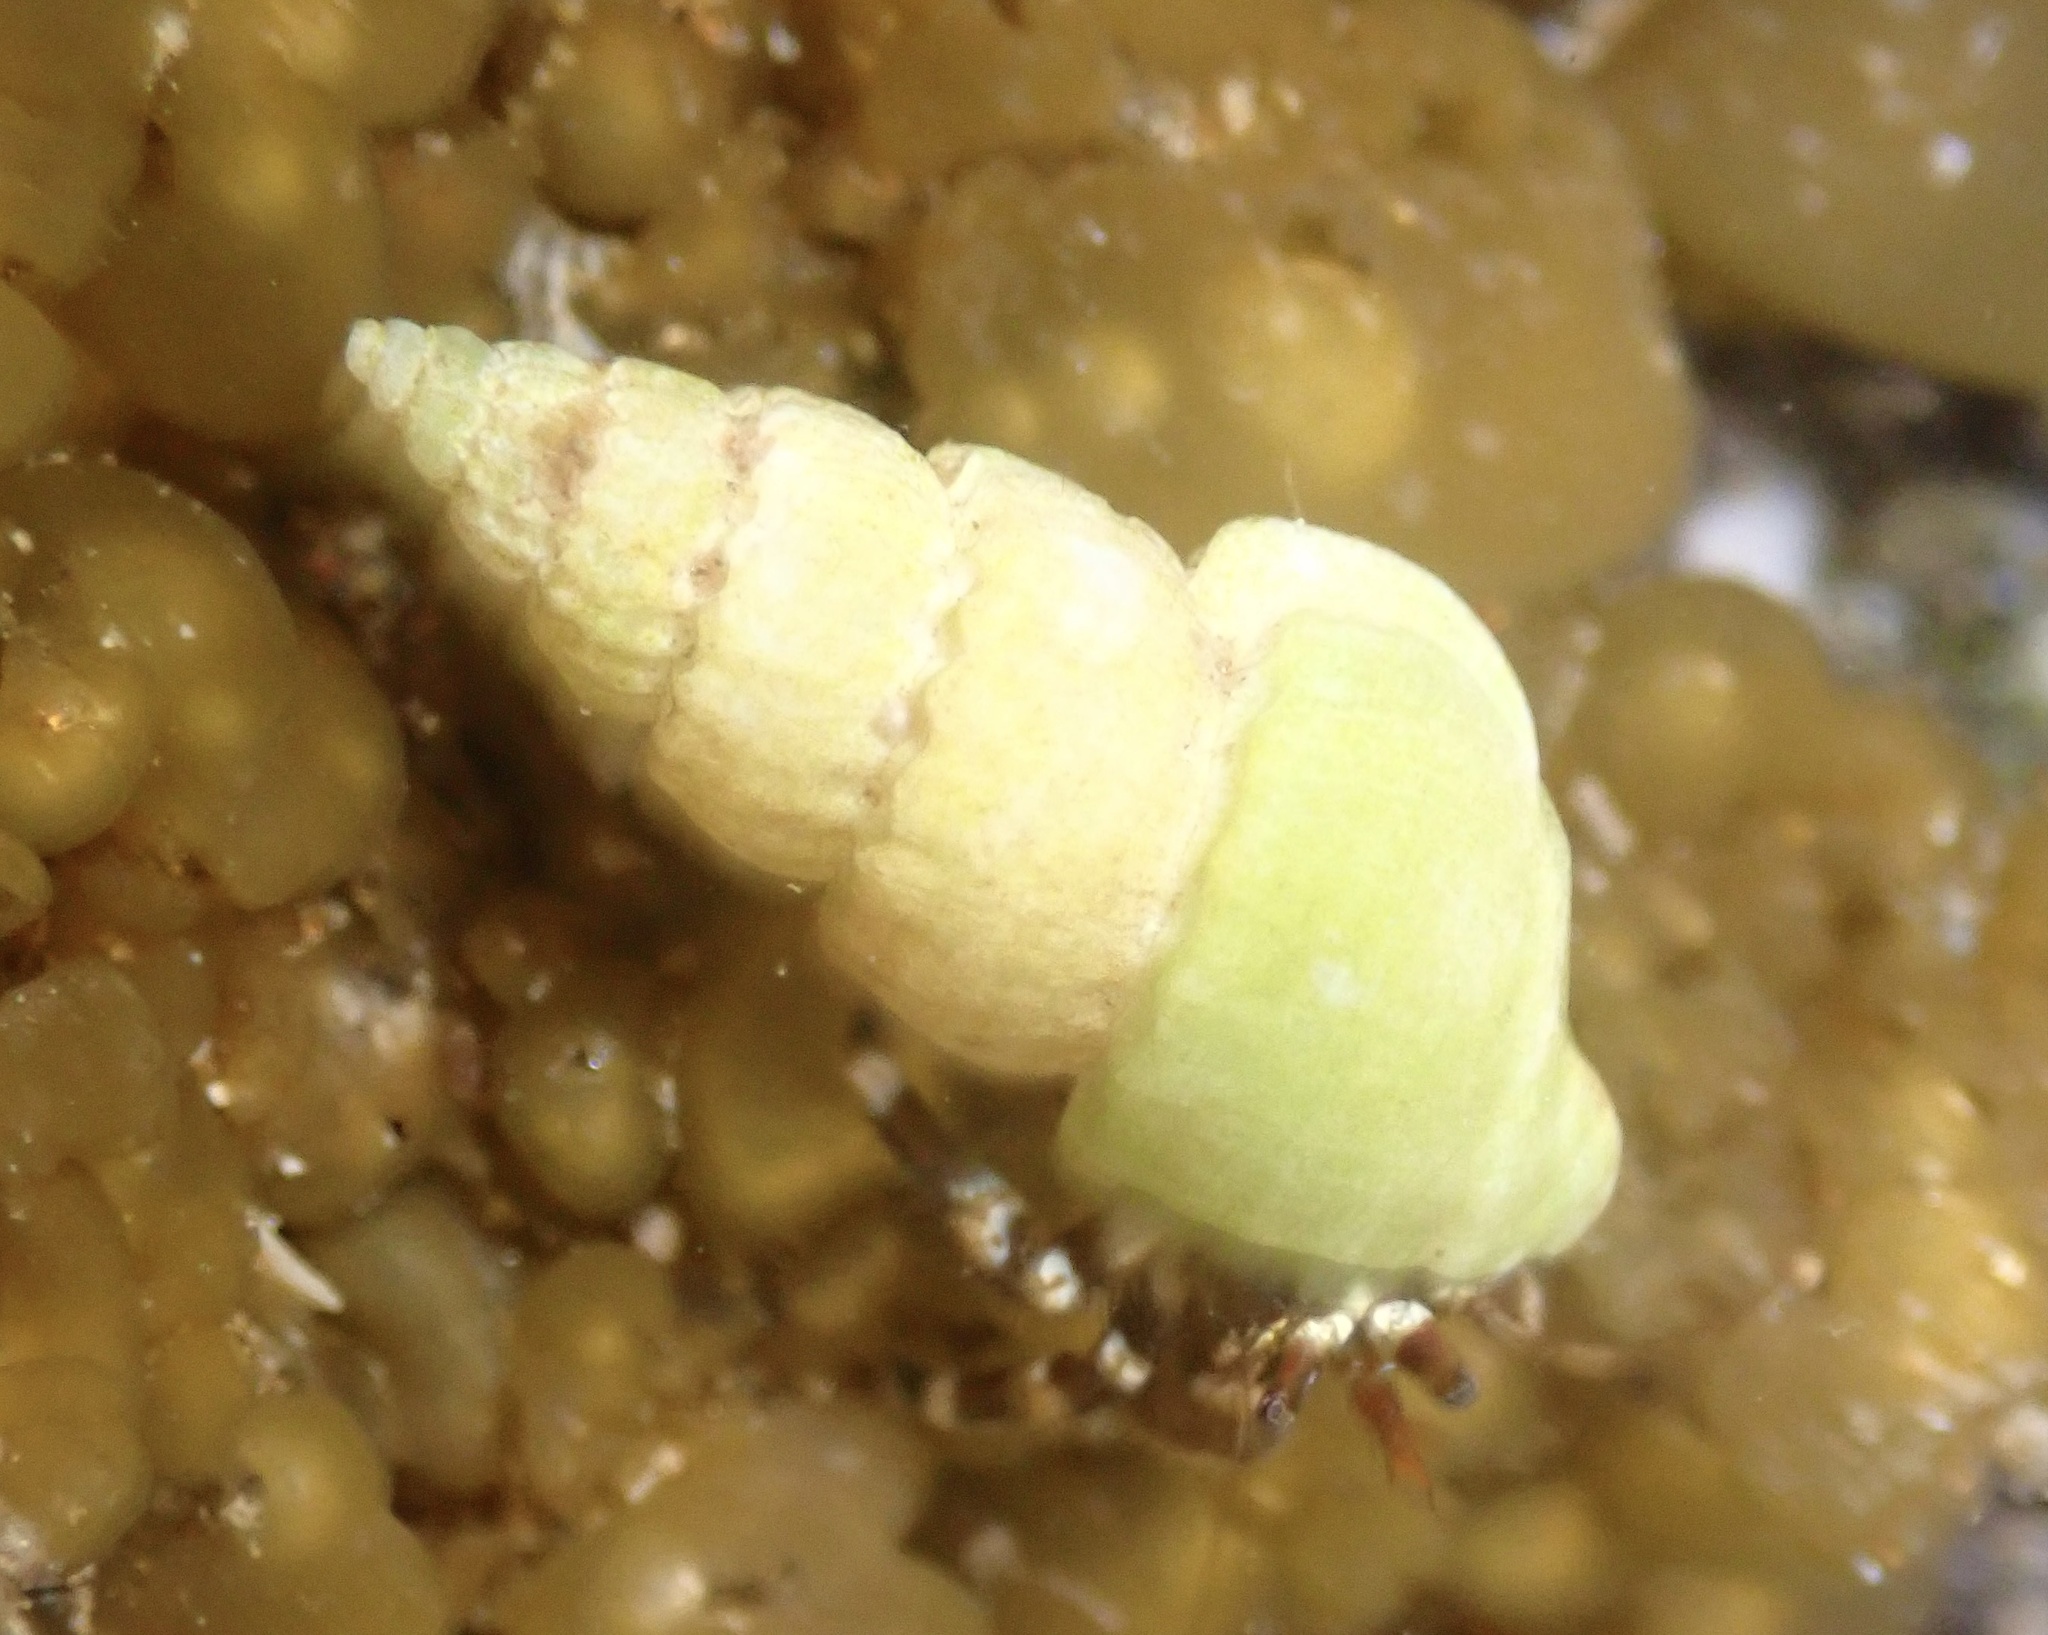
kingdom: Animalia
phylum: Mollusca
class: Gastropoda
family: Epitoniidae
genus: Opalia
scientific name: Opalia funiculata
